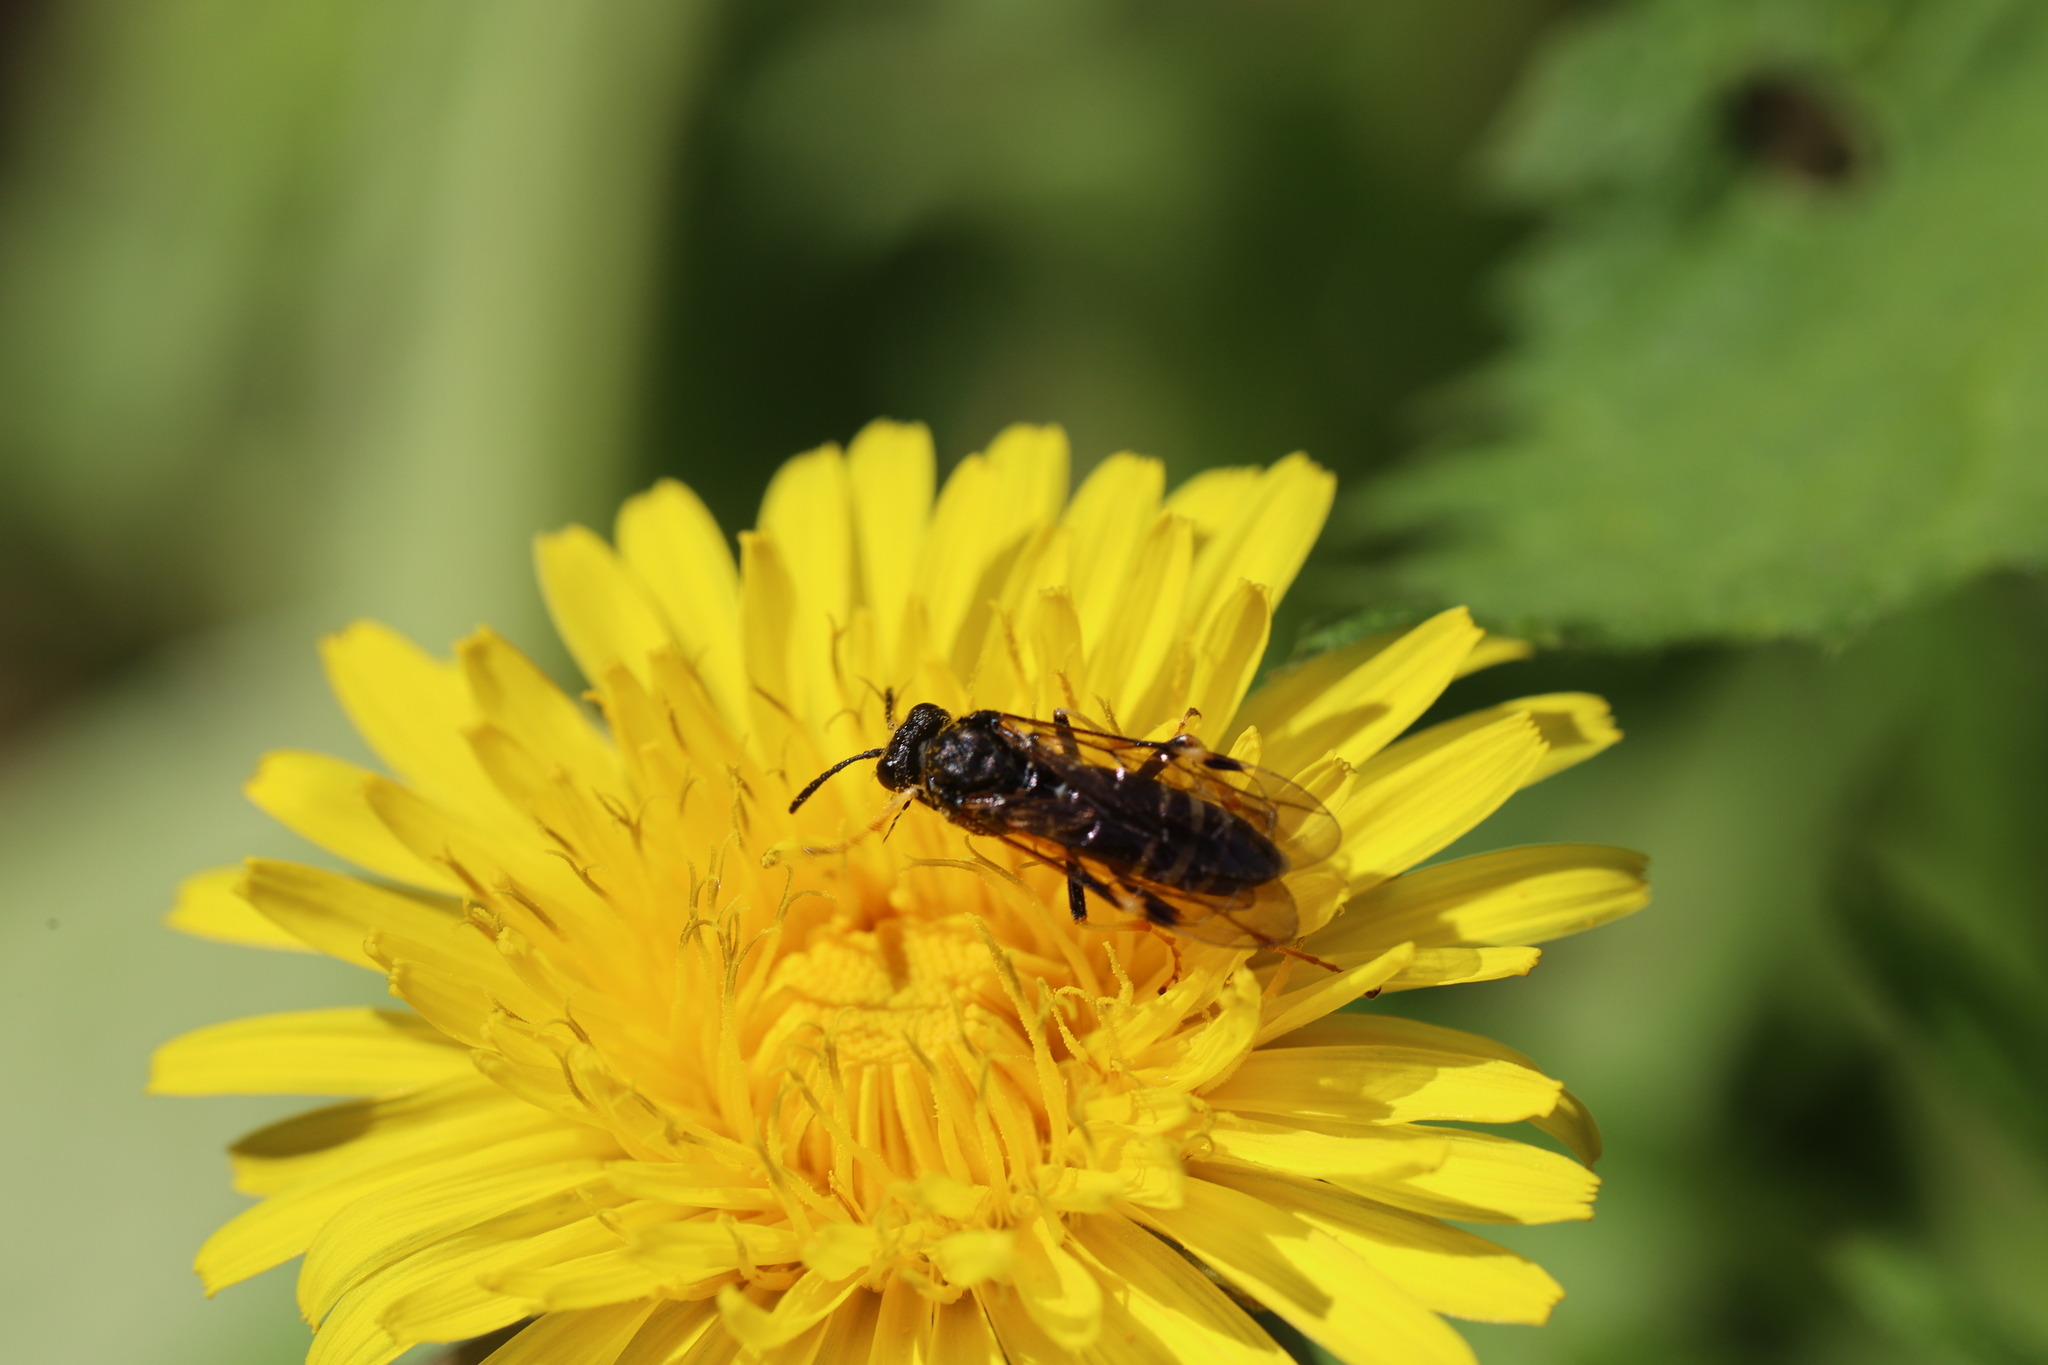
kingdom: Animalia
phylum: Arthropoda
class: Insecta
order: Hymenoptera
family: Tenthredinidae
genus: Tenthredo
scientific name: Tenthredo koehleri
